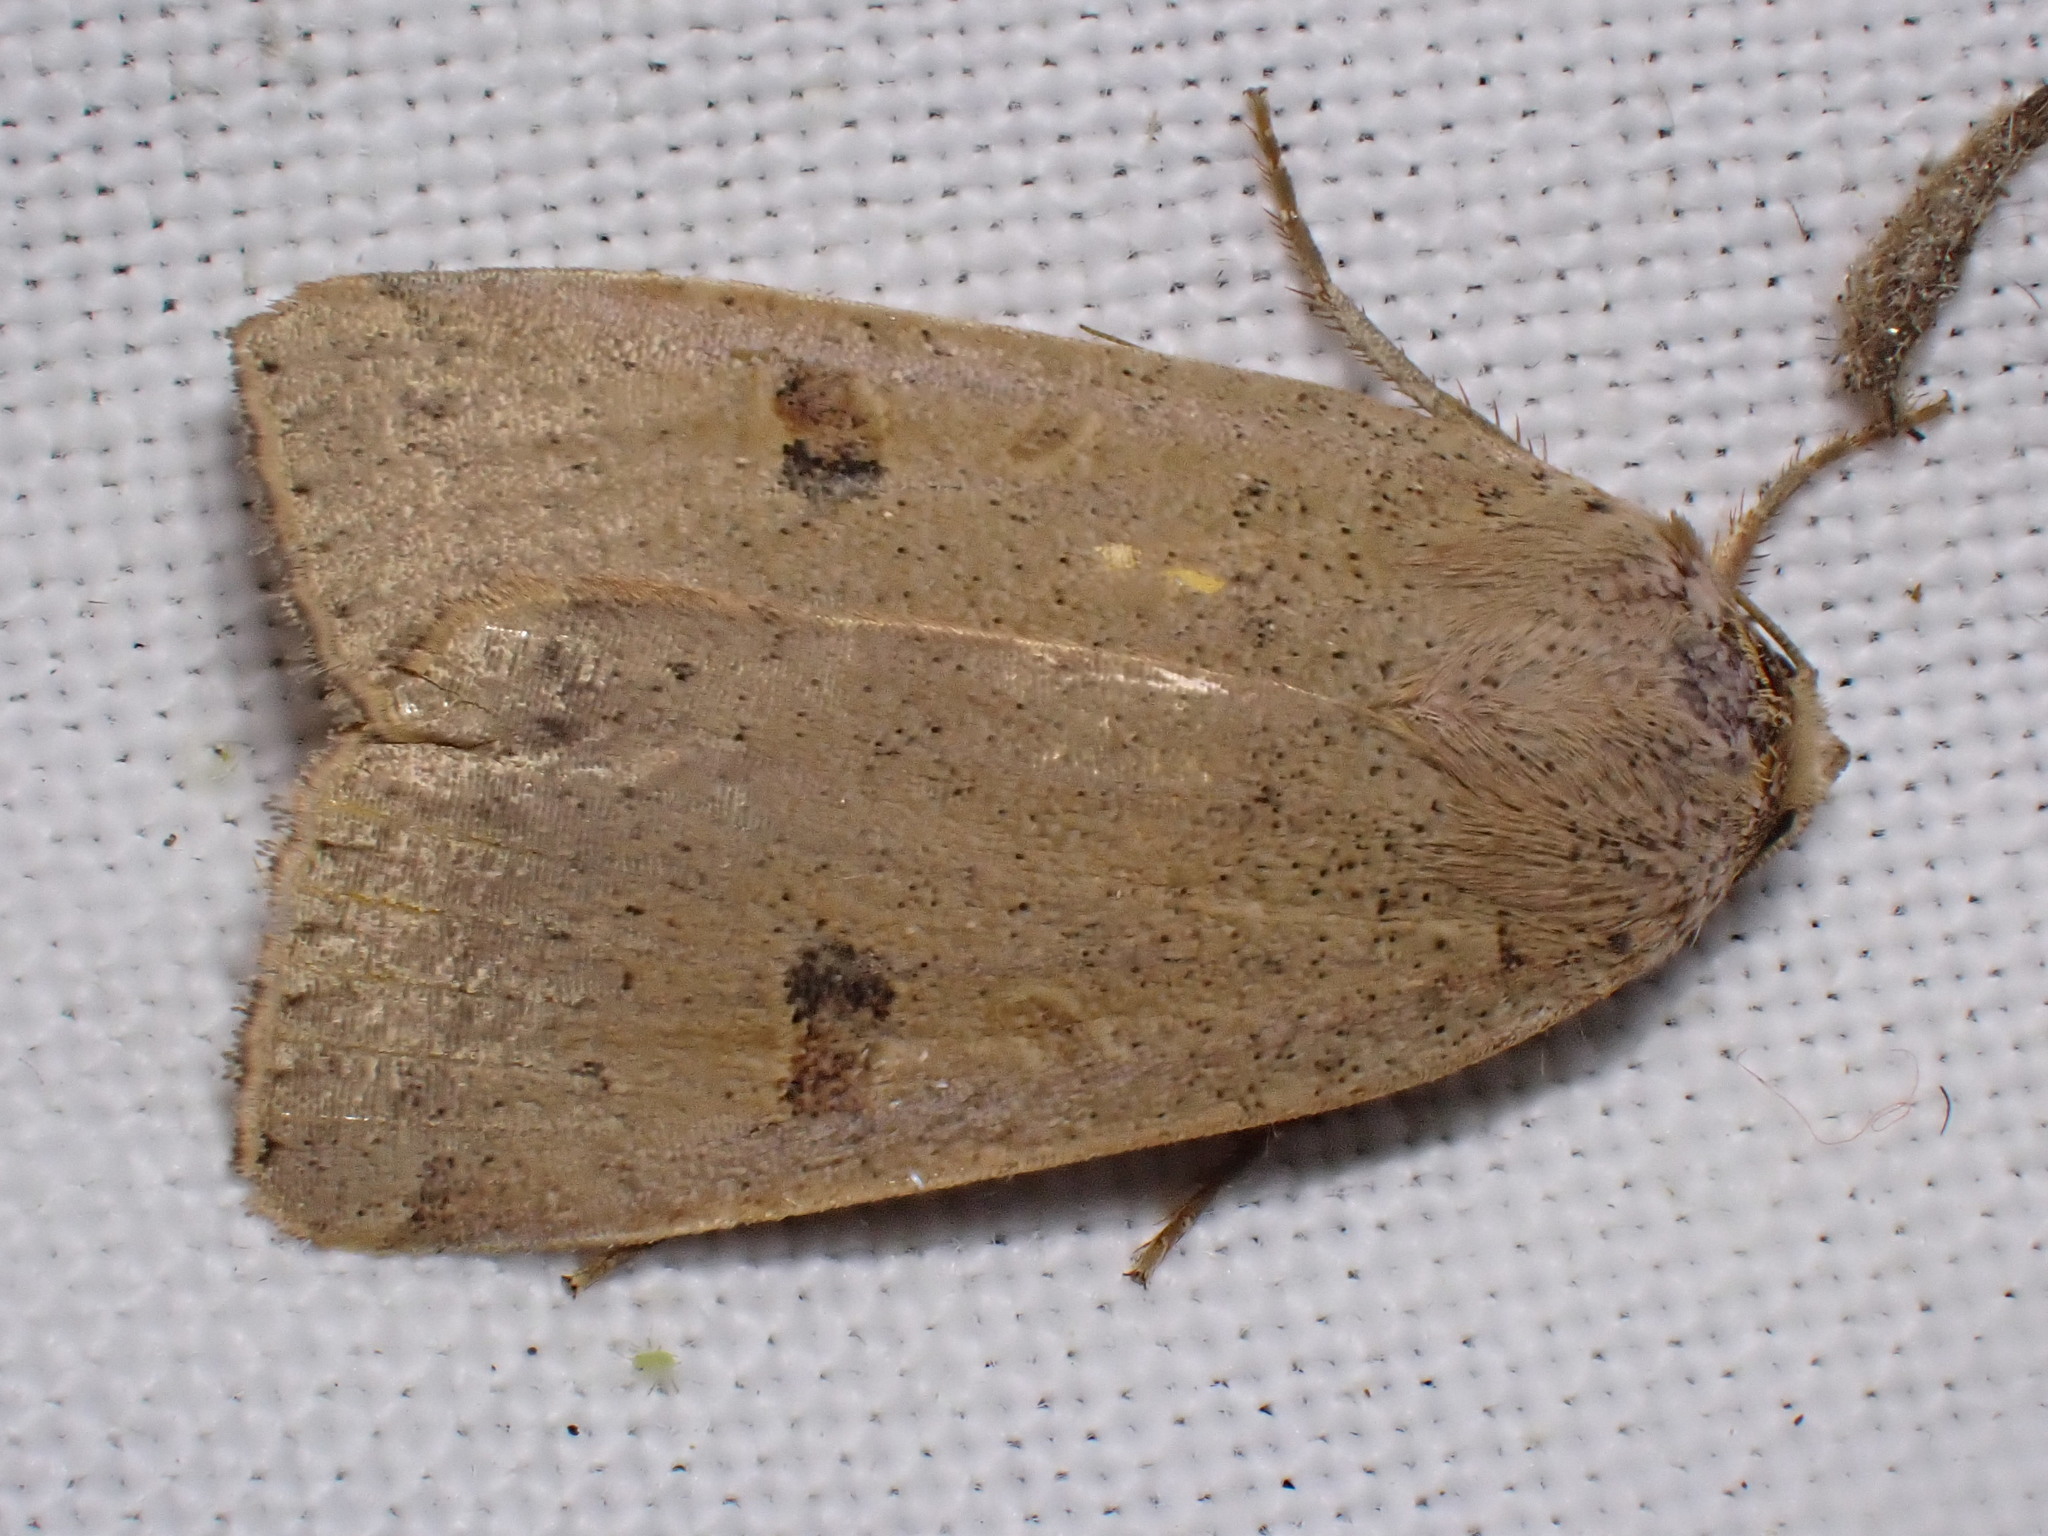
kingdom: Animalia
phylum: Arthropoda
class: Insecta
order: Lepidoptera
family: Noctuidae
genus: Noctua
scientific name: Noctua comes
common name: Lesser yellow underwing
